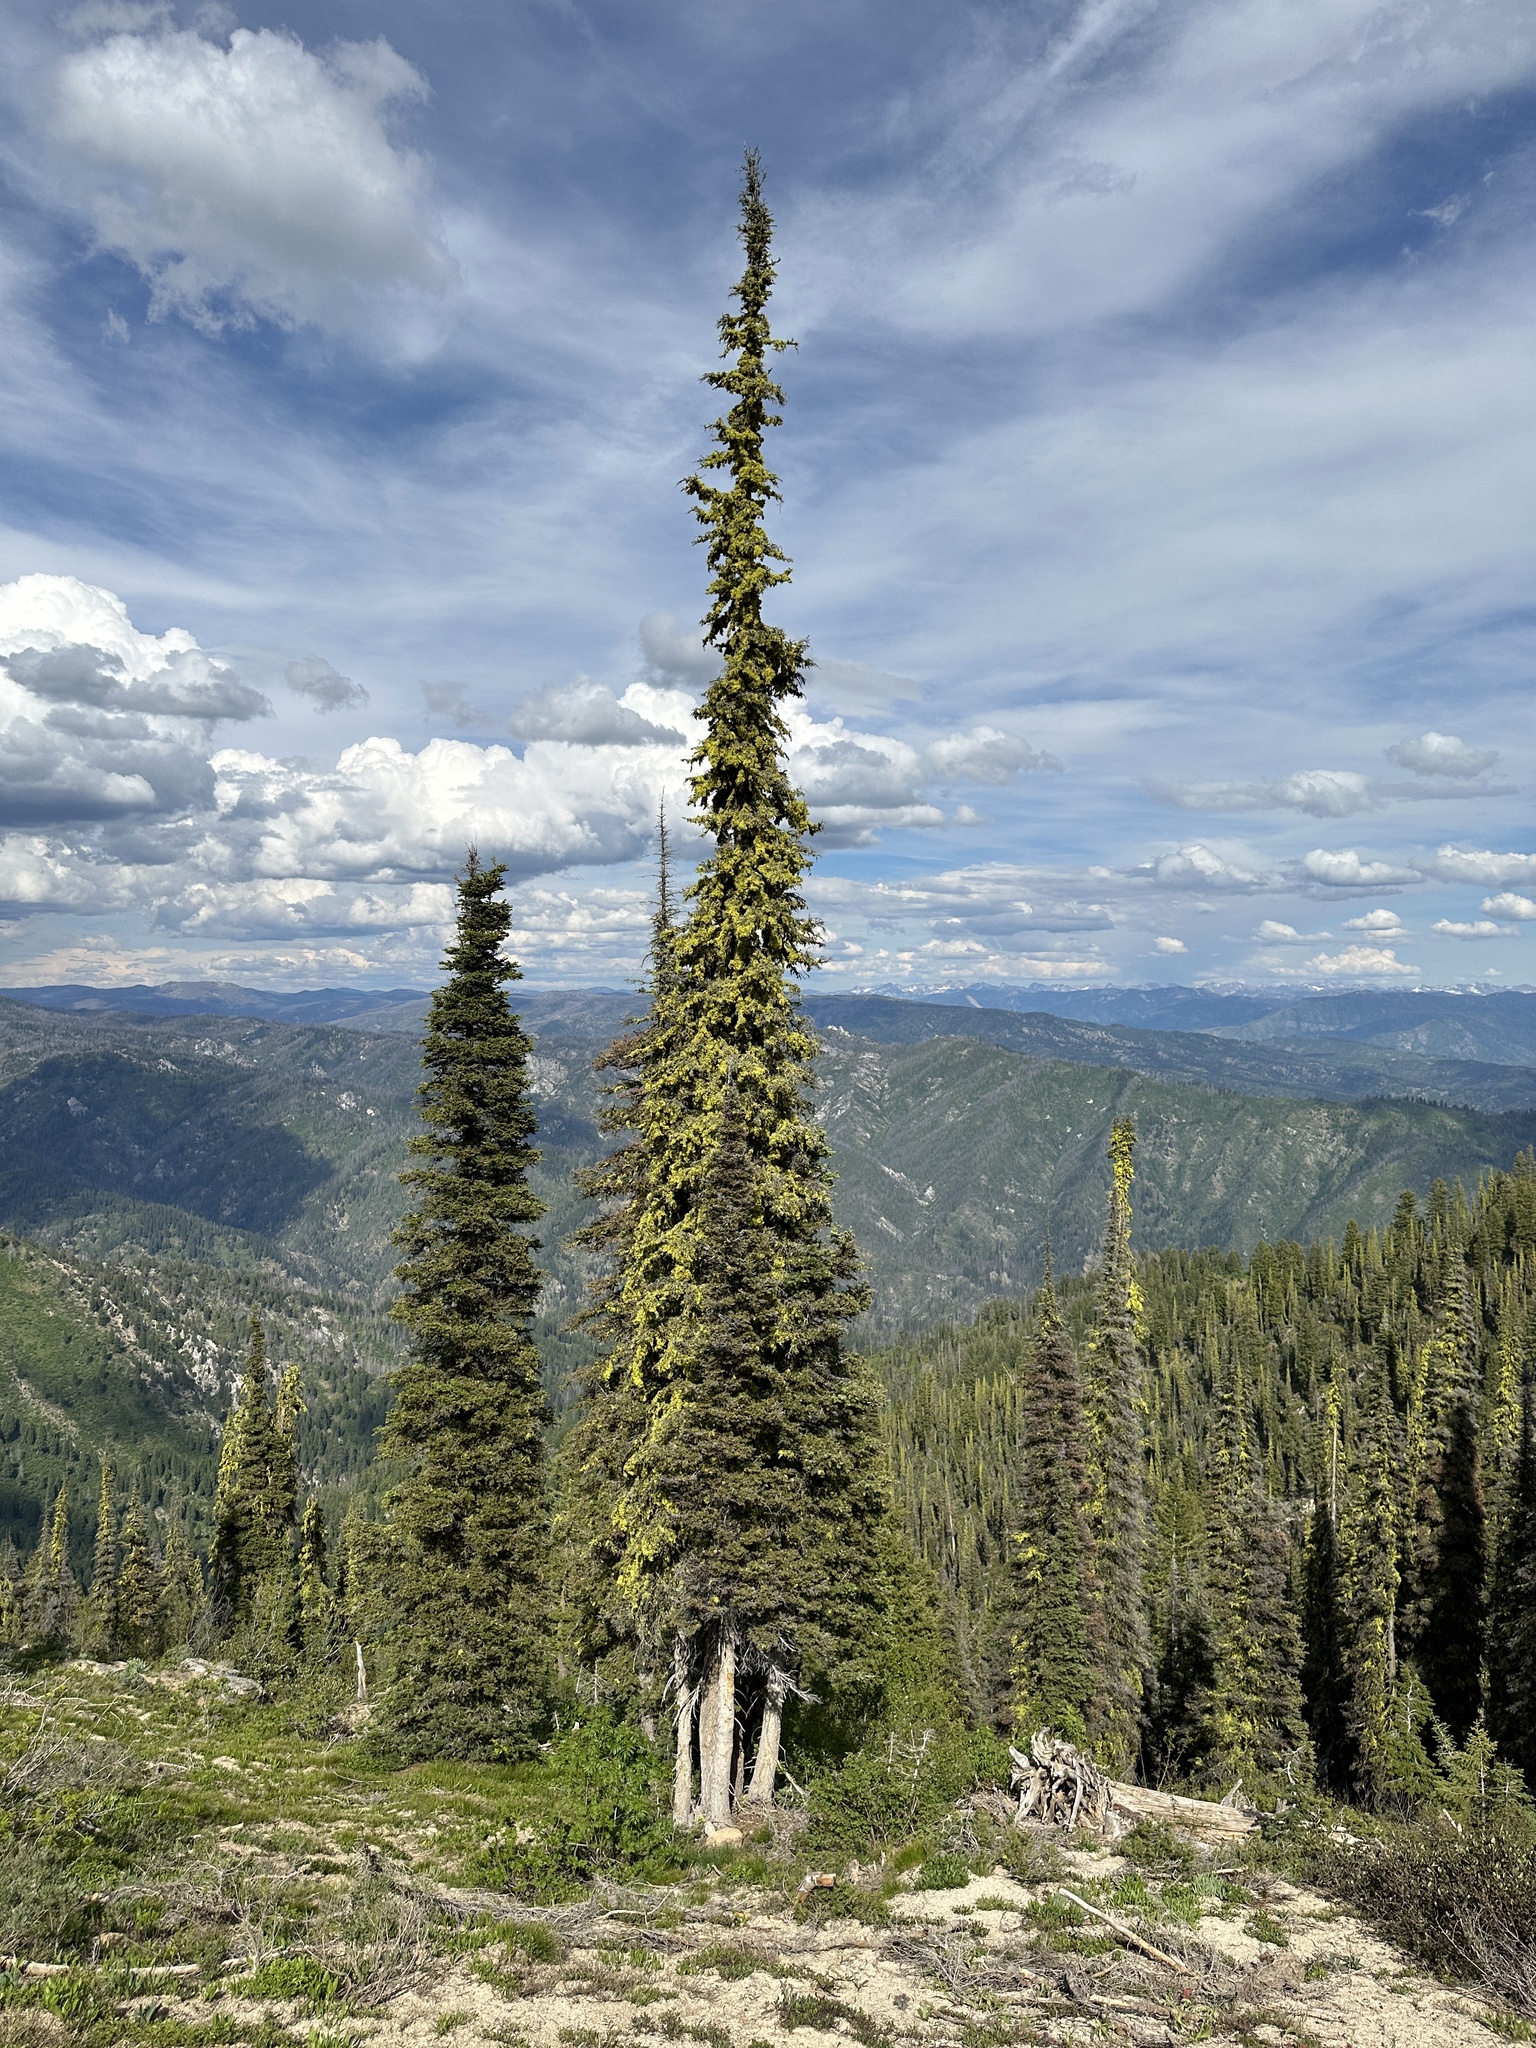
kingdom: Plantae
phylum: Tracheophyta
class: Pinopsida
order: Pinales
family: Pinaceae
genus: Abies
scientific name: Abies lasiocarpa
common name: Subalpine fir
